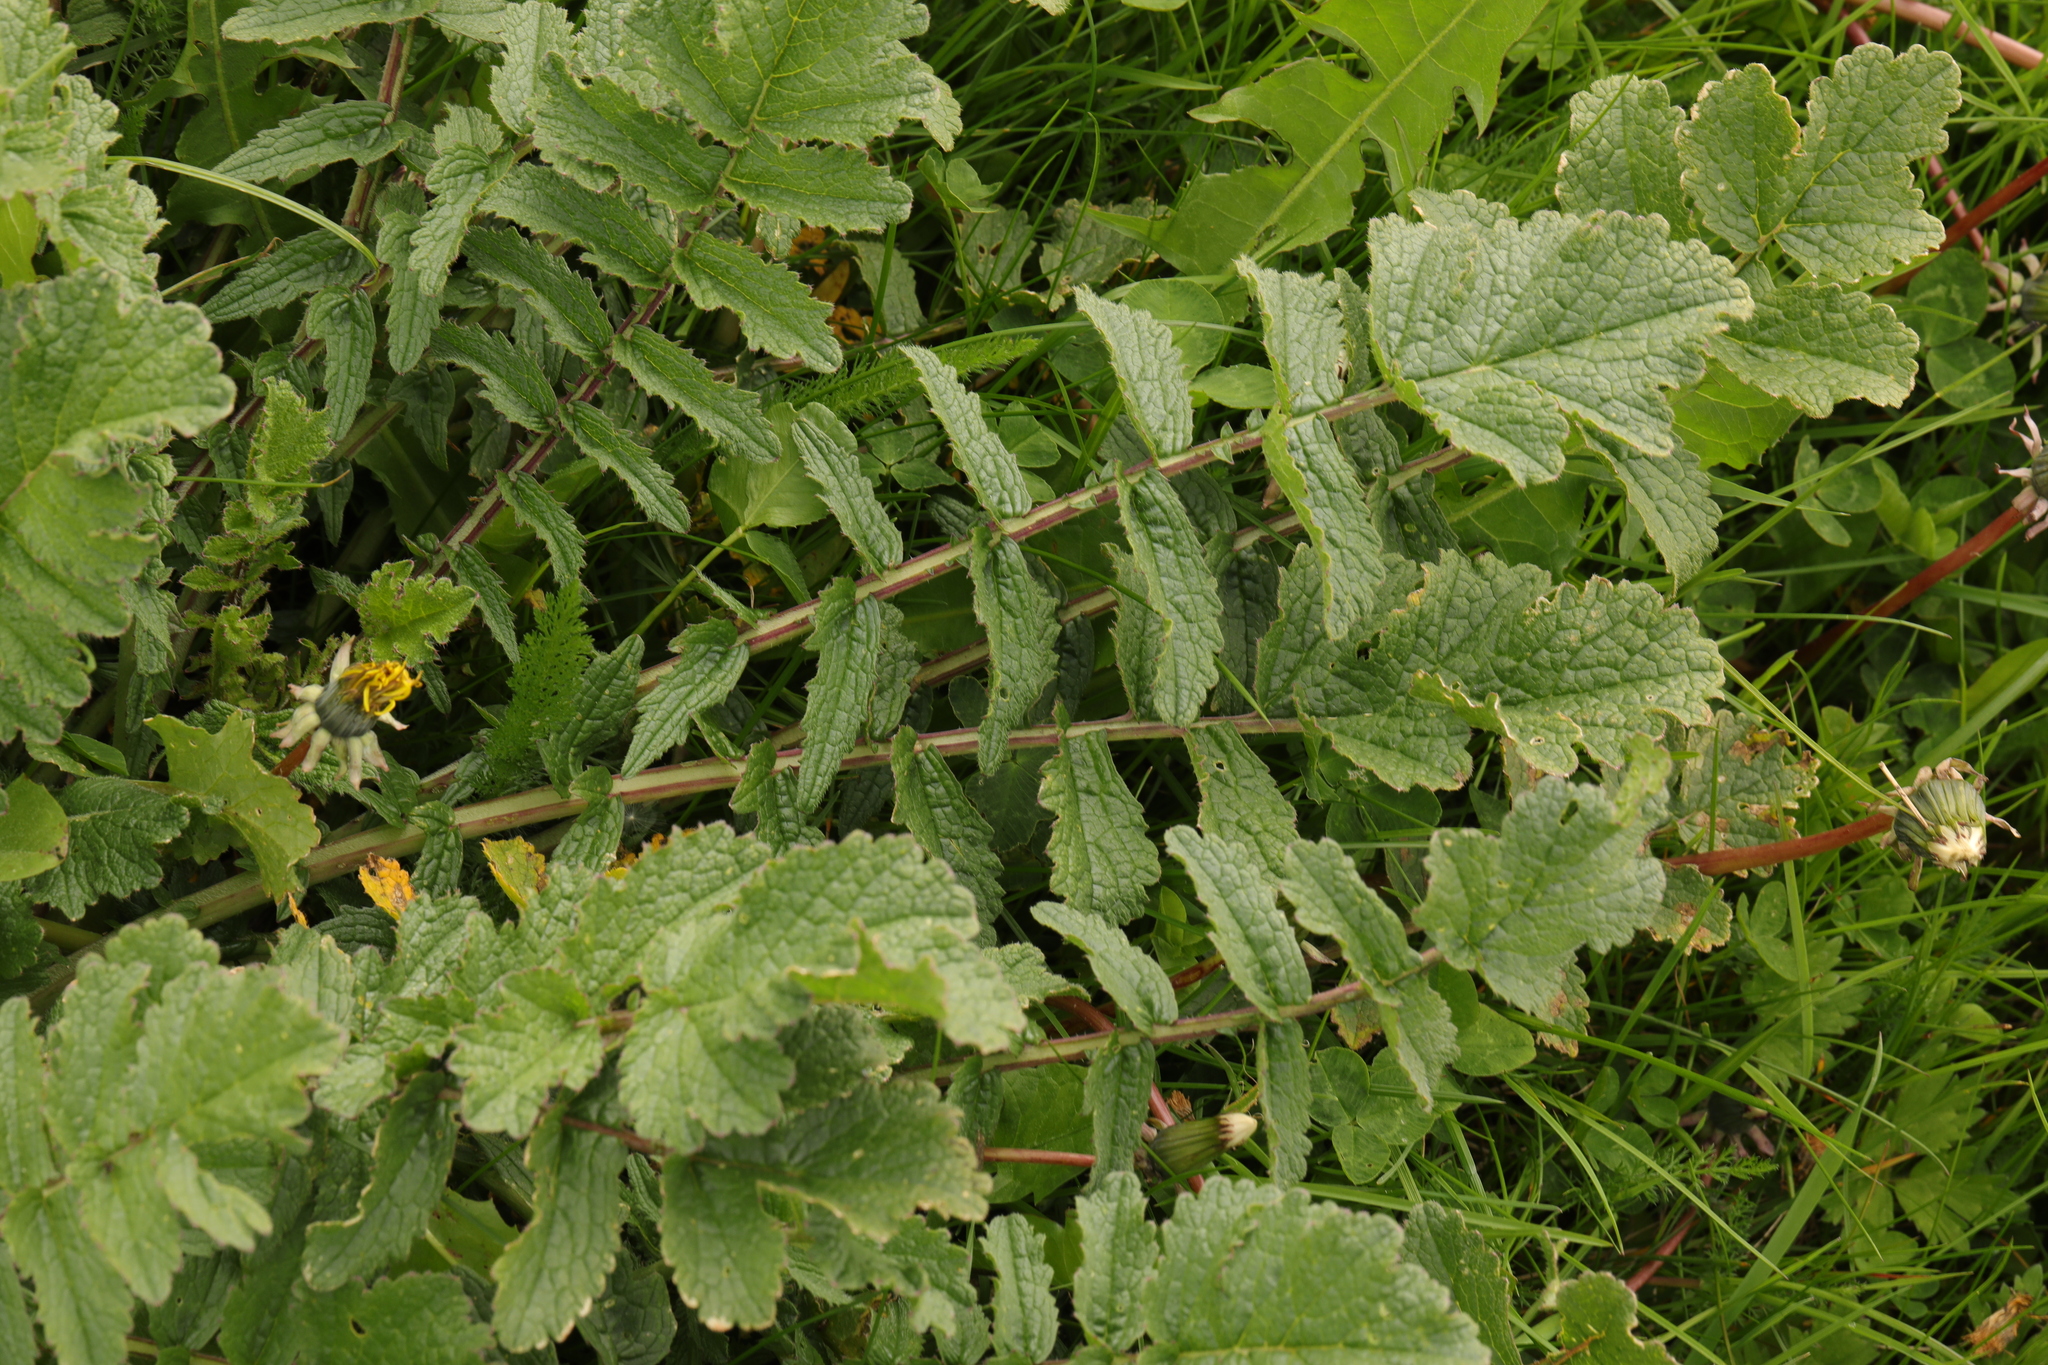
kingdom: Plantae
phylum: Tracheophyta
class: Magnoliopsida
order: Brassicales
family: Brassicaceae
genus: Raphanus
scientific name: Raphanus raphanistrum
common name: Wild radish
